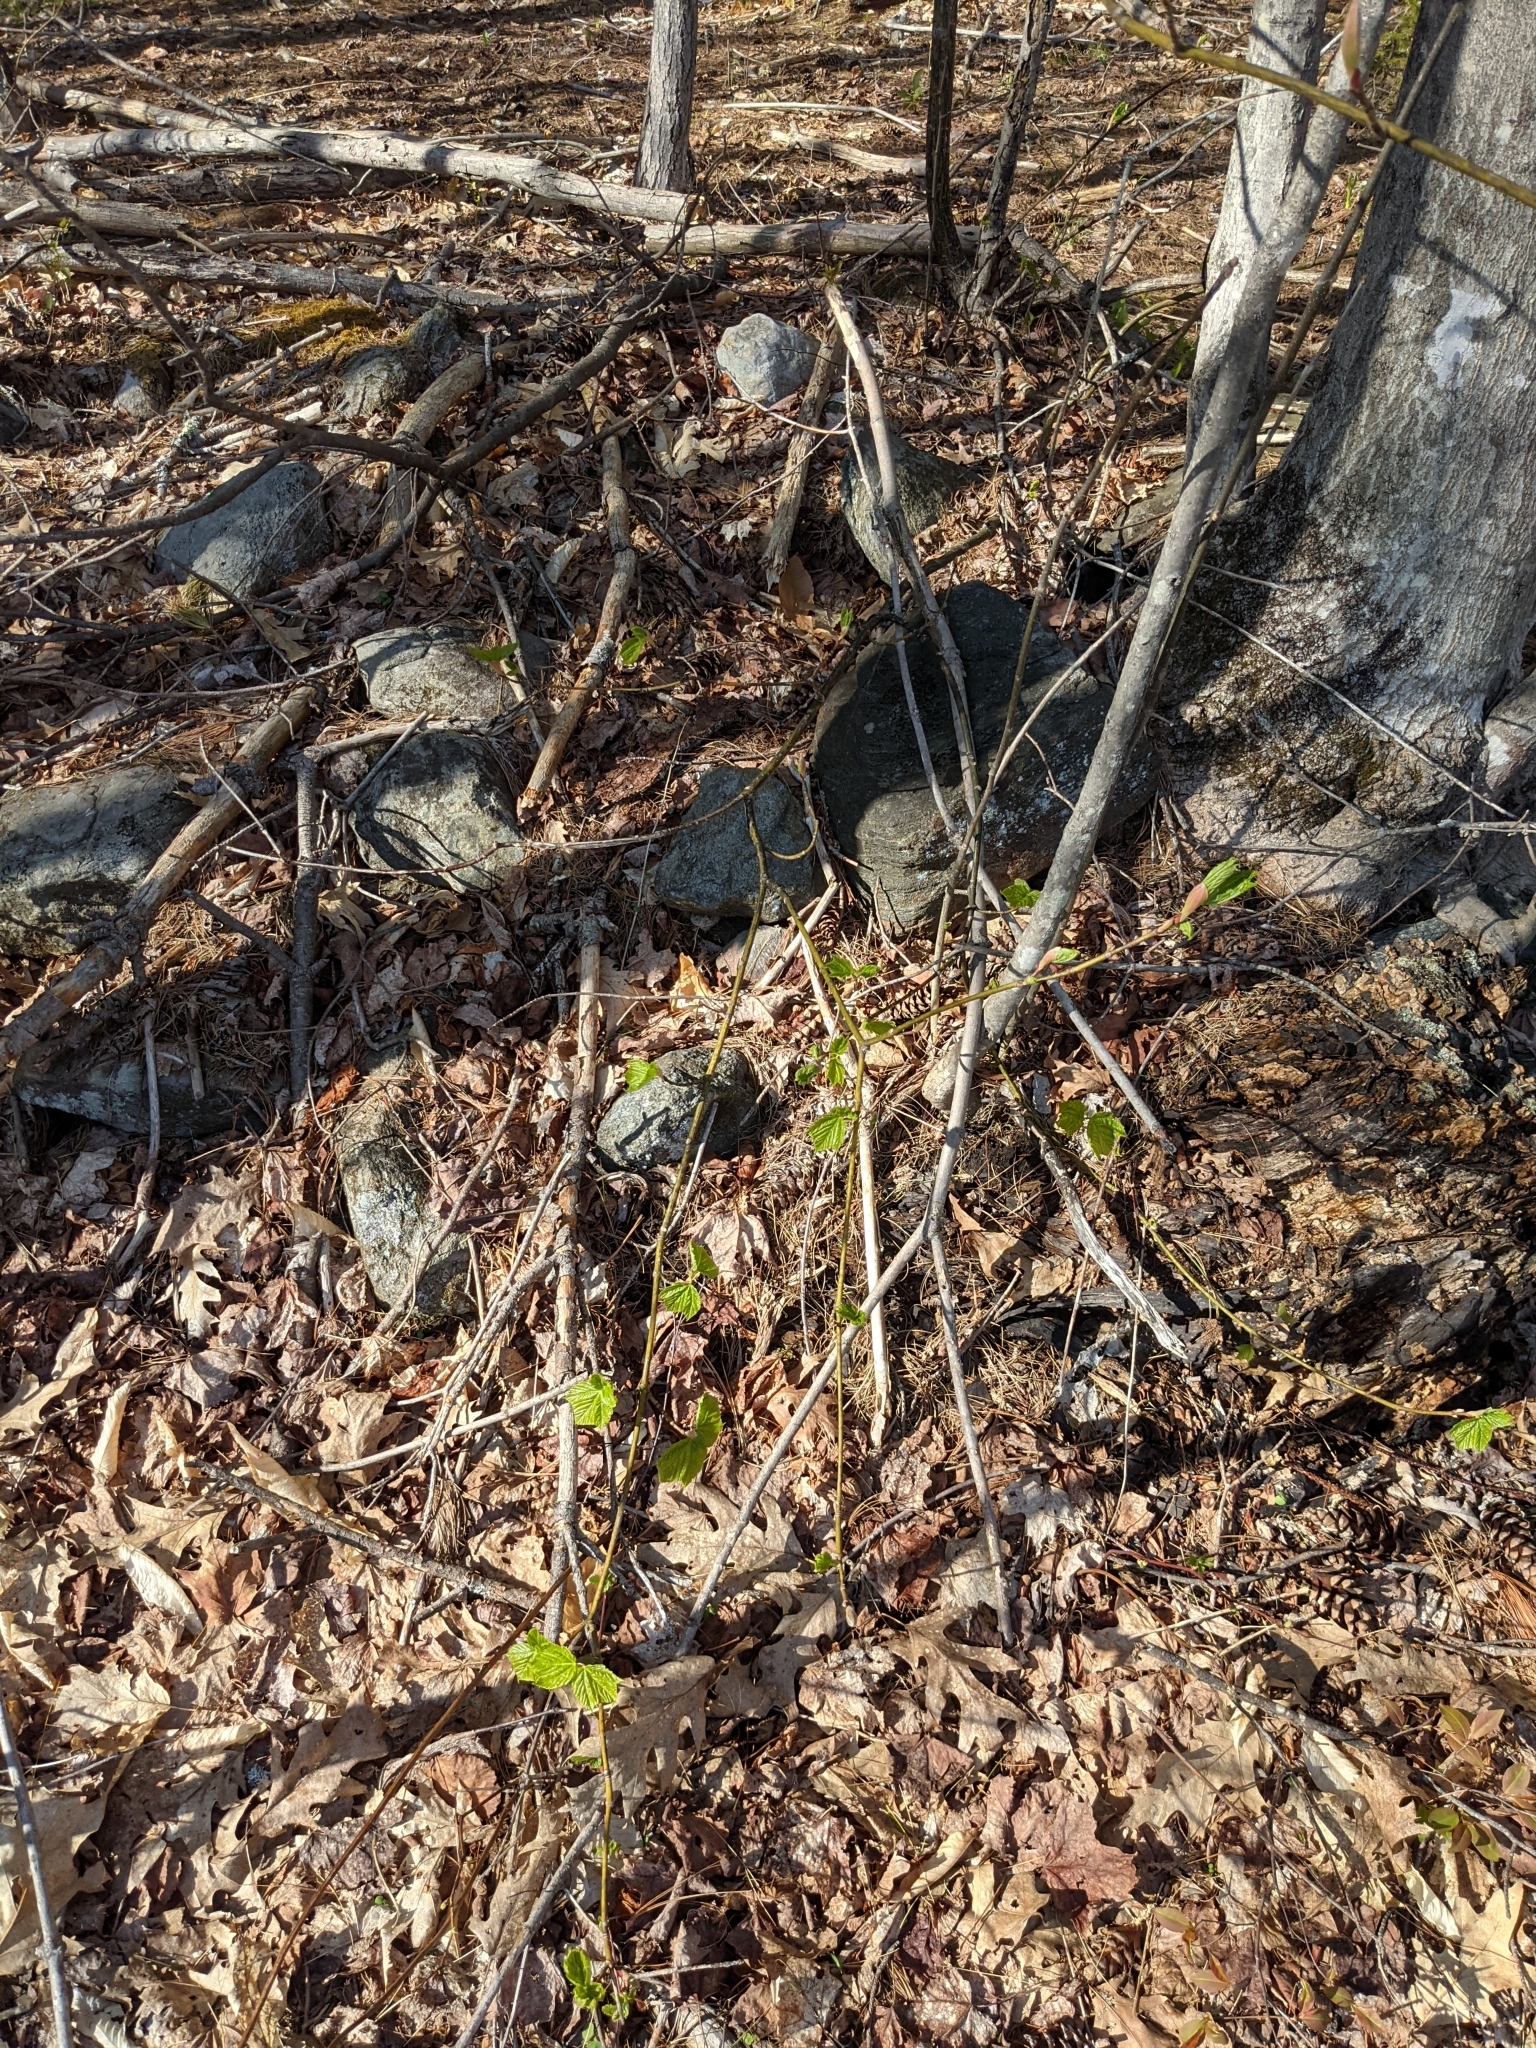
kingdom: Plantae
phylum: Tracheophyta
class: Magnoliopsida
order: Sapindales
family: Sapindaceae
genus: Acer
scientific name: Acer pensylvanicum
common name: Moosewood
